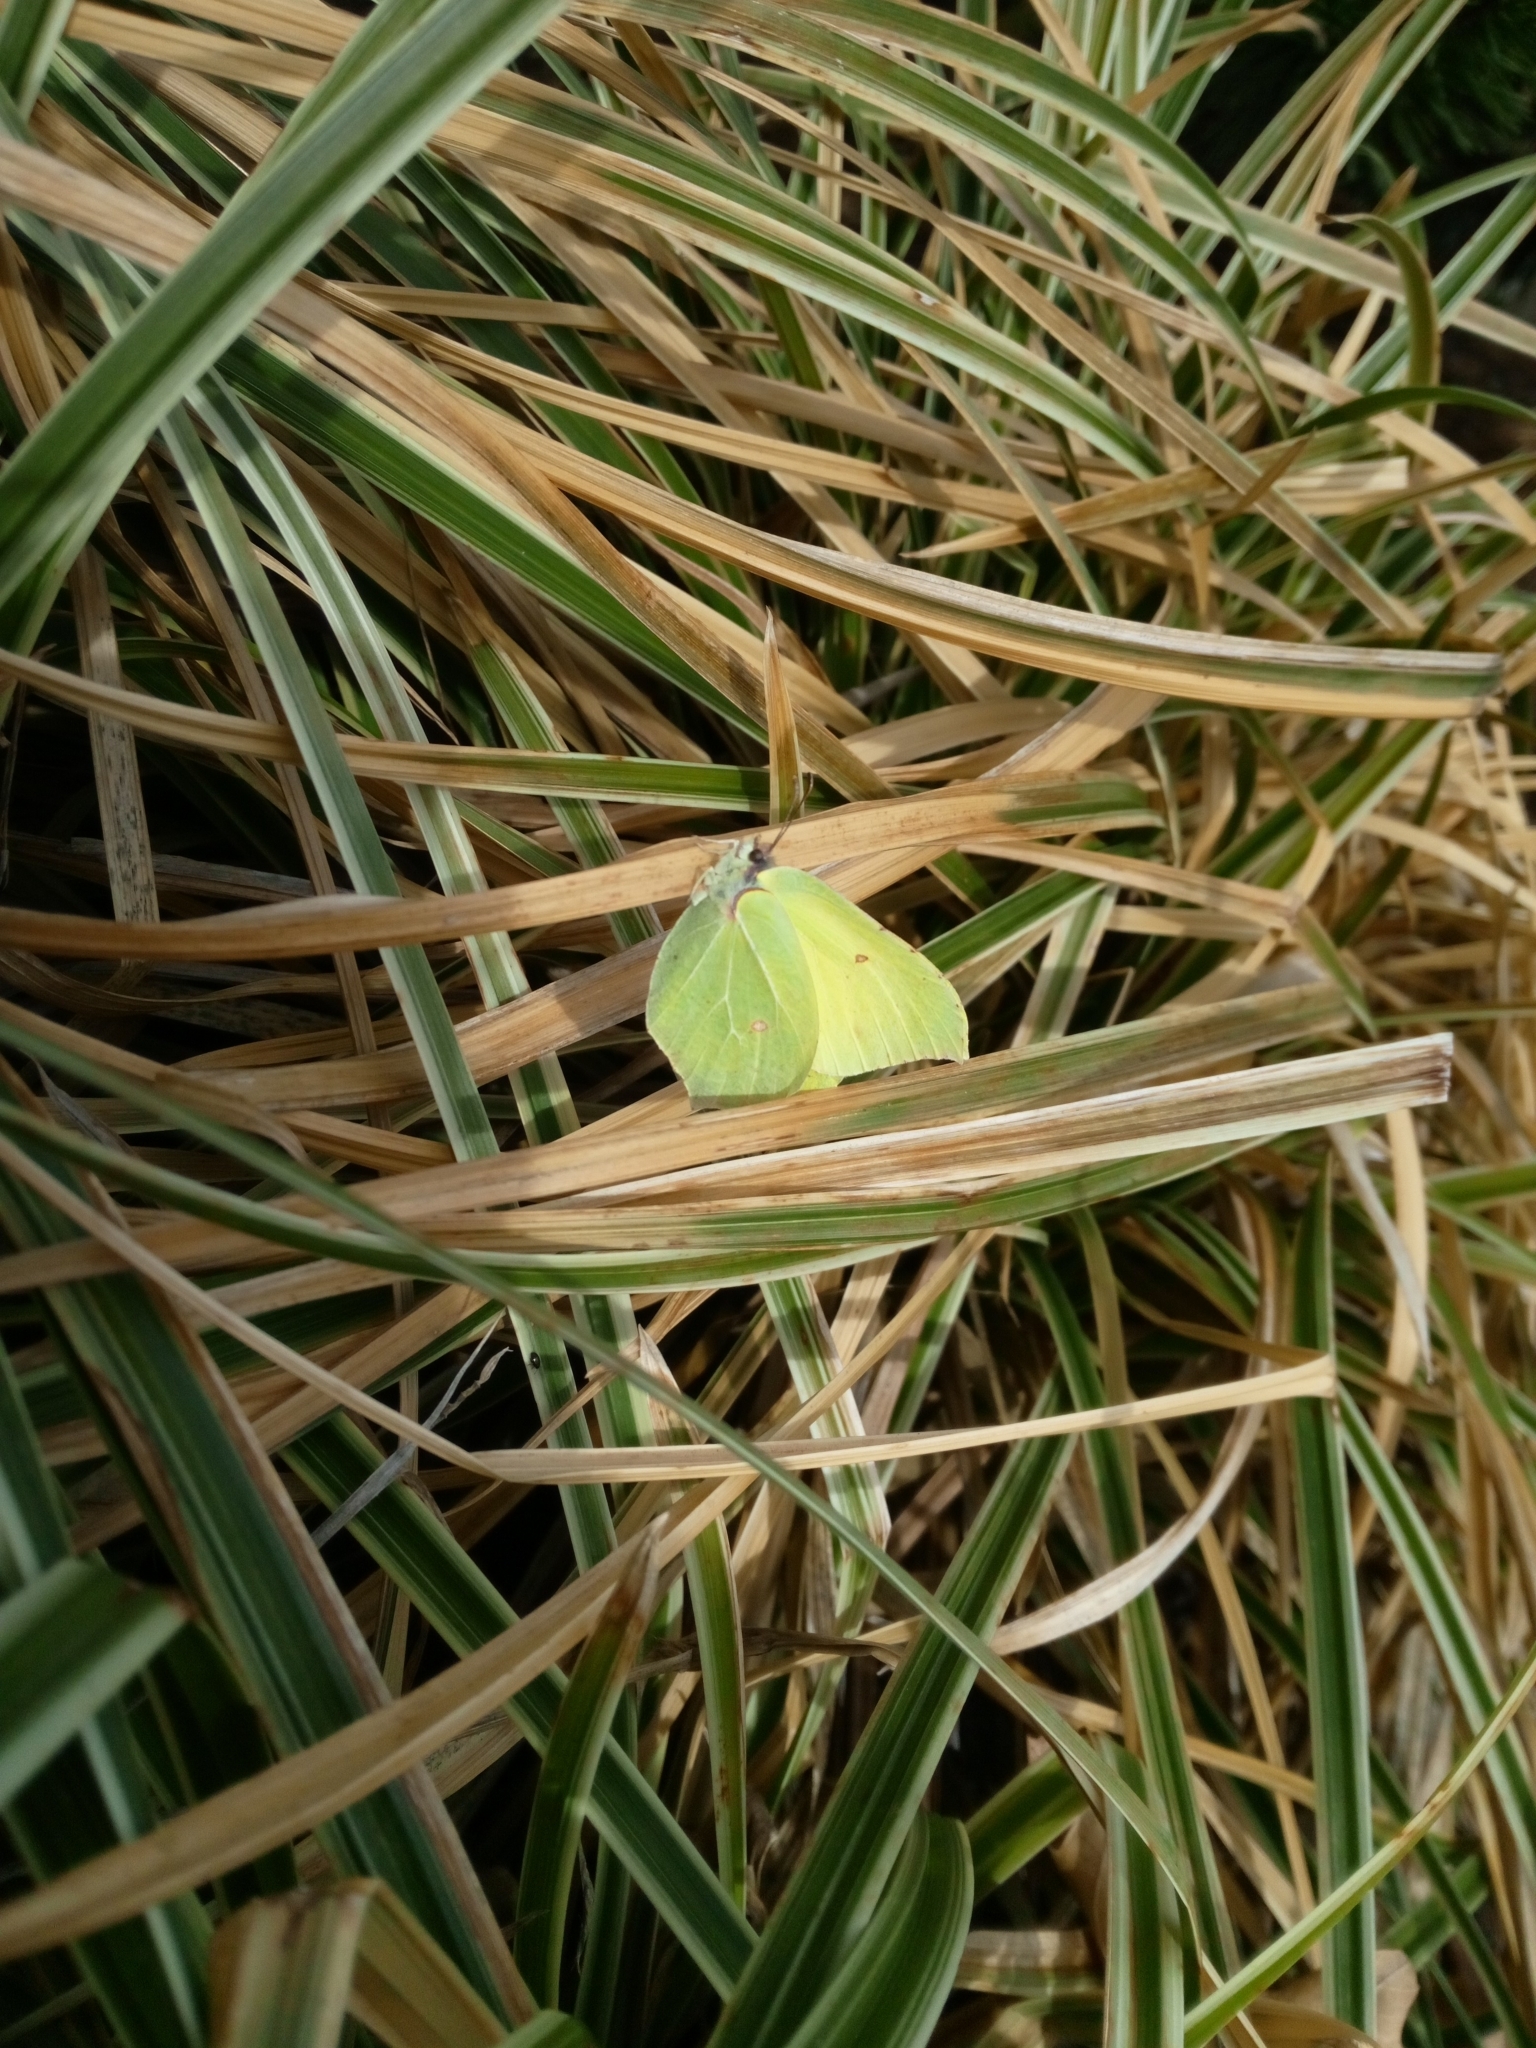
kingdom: Animalia
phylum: Arthropoda
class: Insecta
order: Lepidoptera
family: Pieridae
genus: Gonepteryx
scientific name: Gonepteryx rhamni
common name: Brimstone
